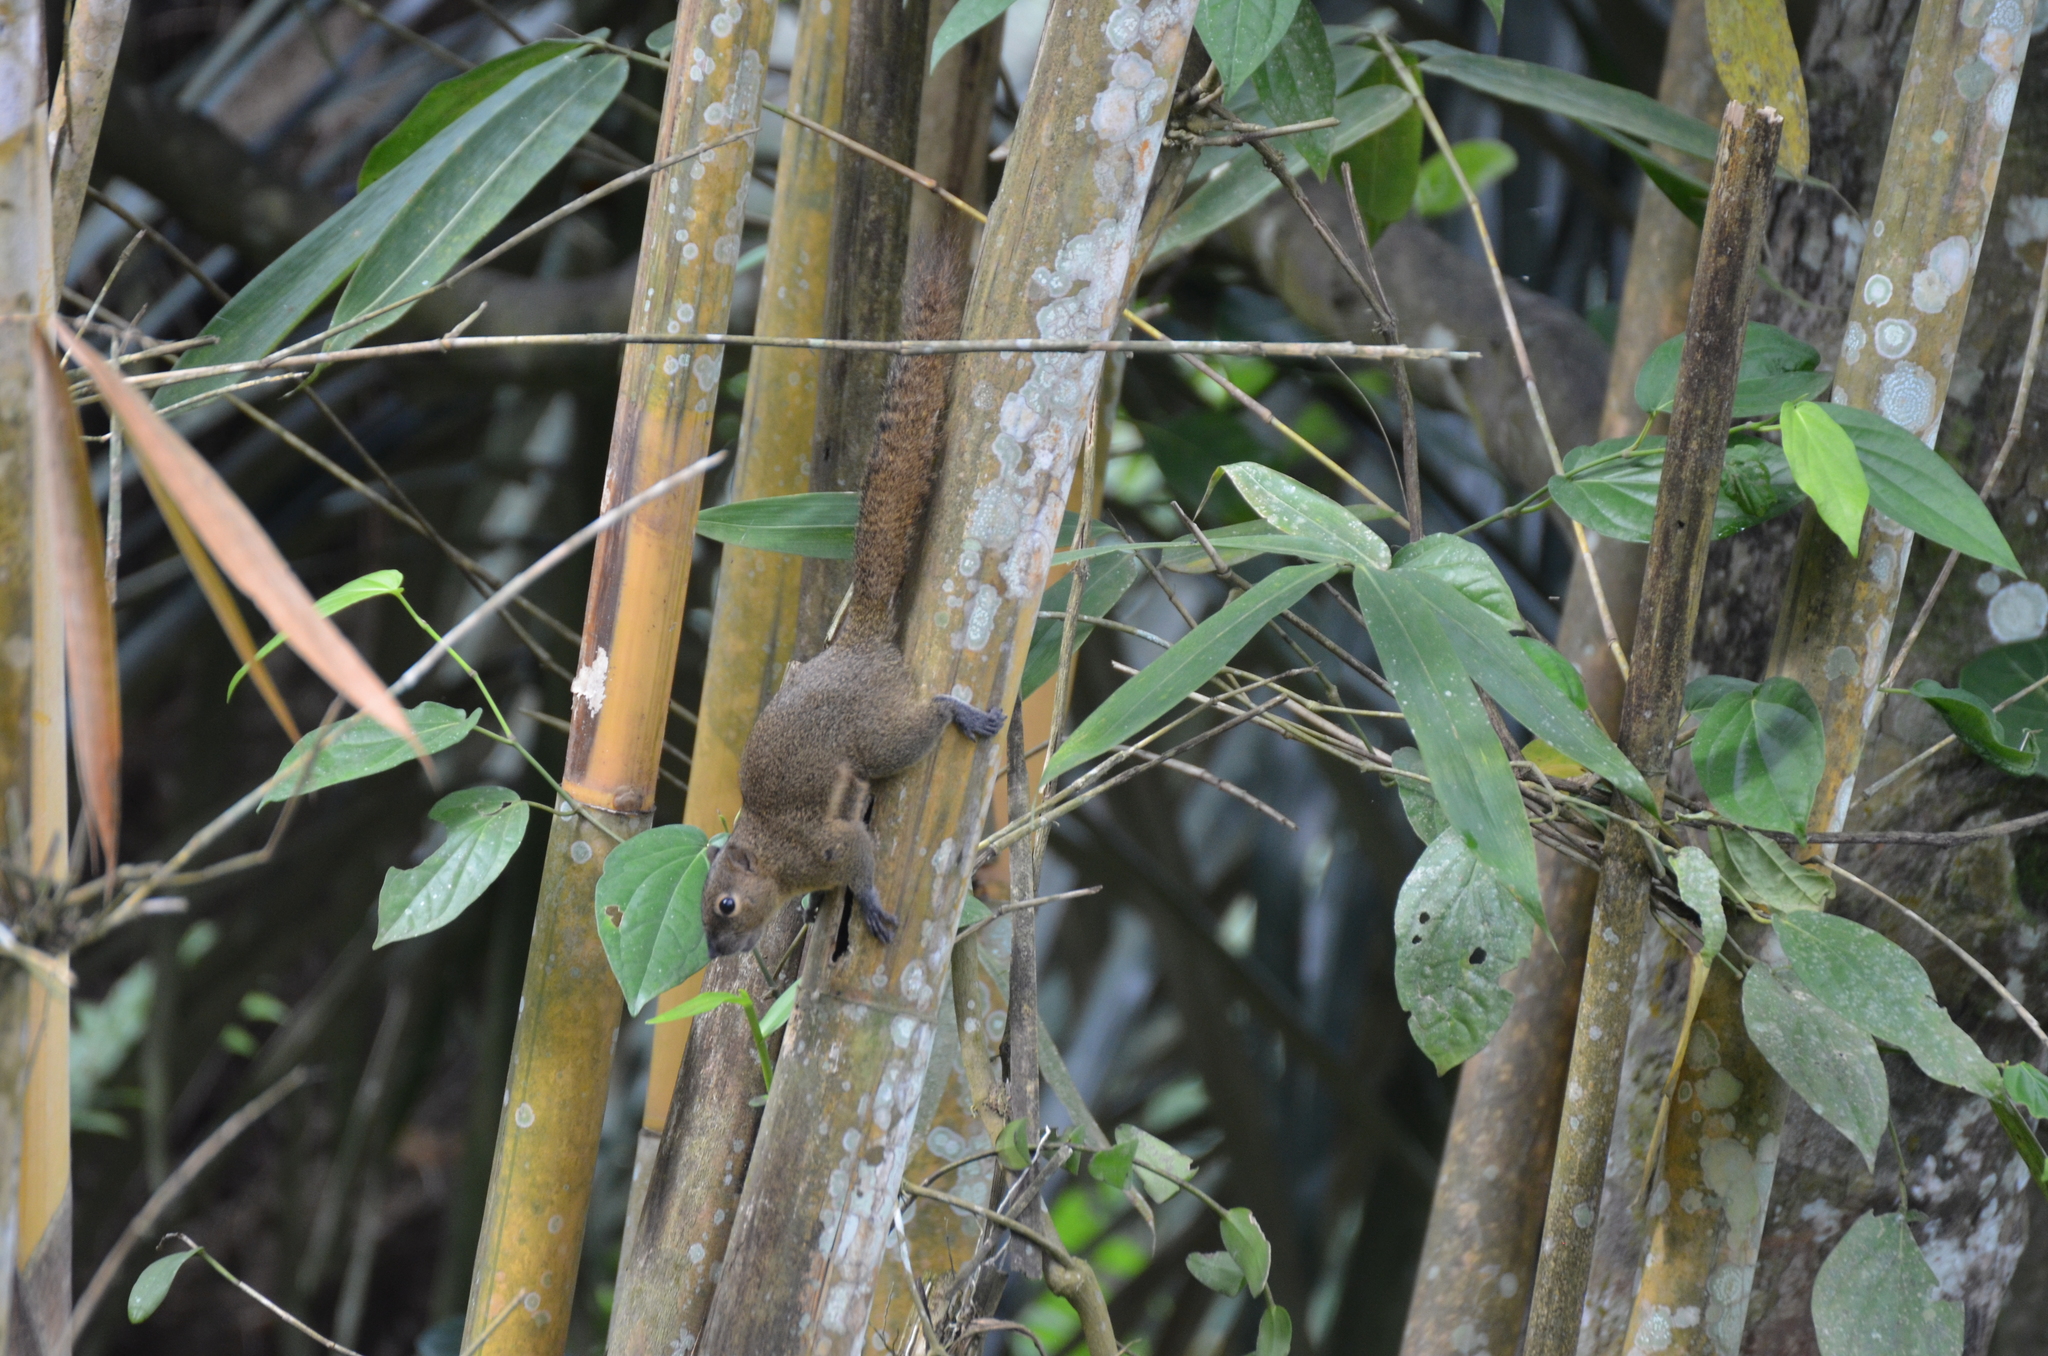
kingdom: Animalia
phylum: Chordata
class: Mammalia
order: Rodentia
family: Sciuridae
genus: Callosciurus
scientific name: Callosciurus notatus
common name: Plantain squirrel
